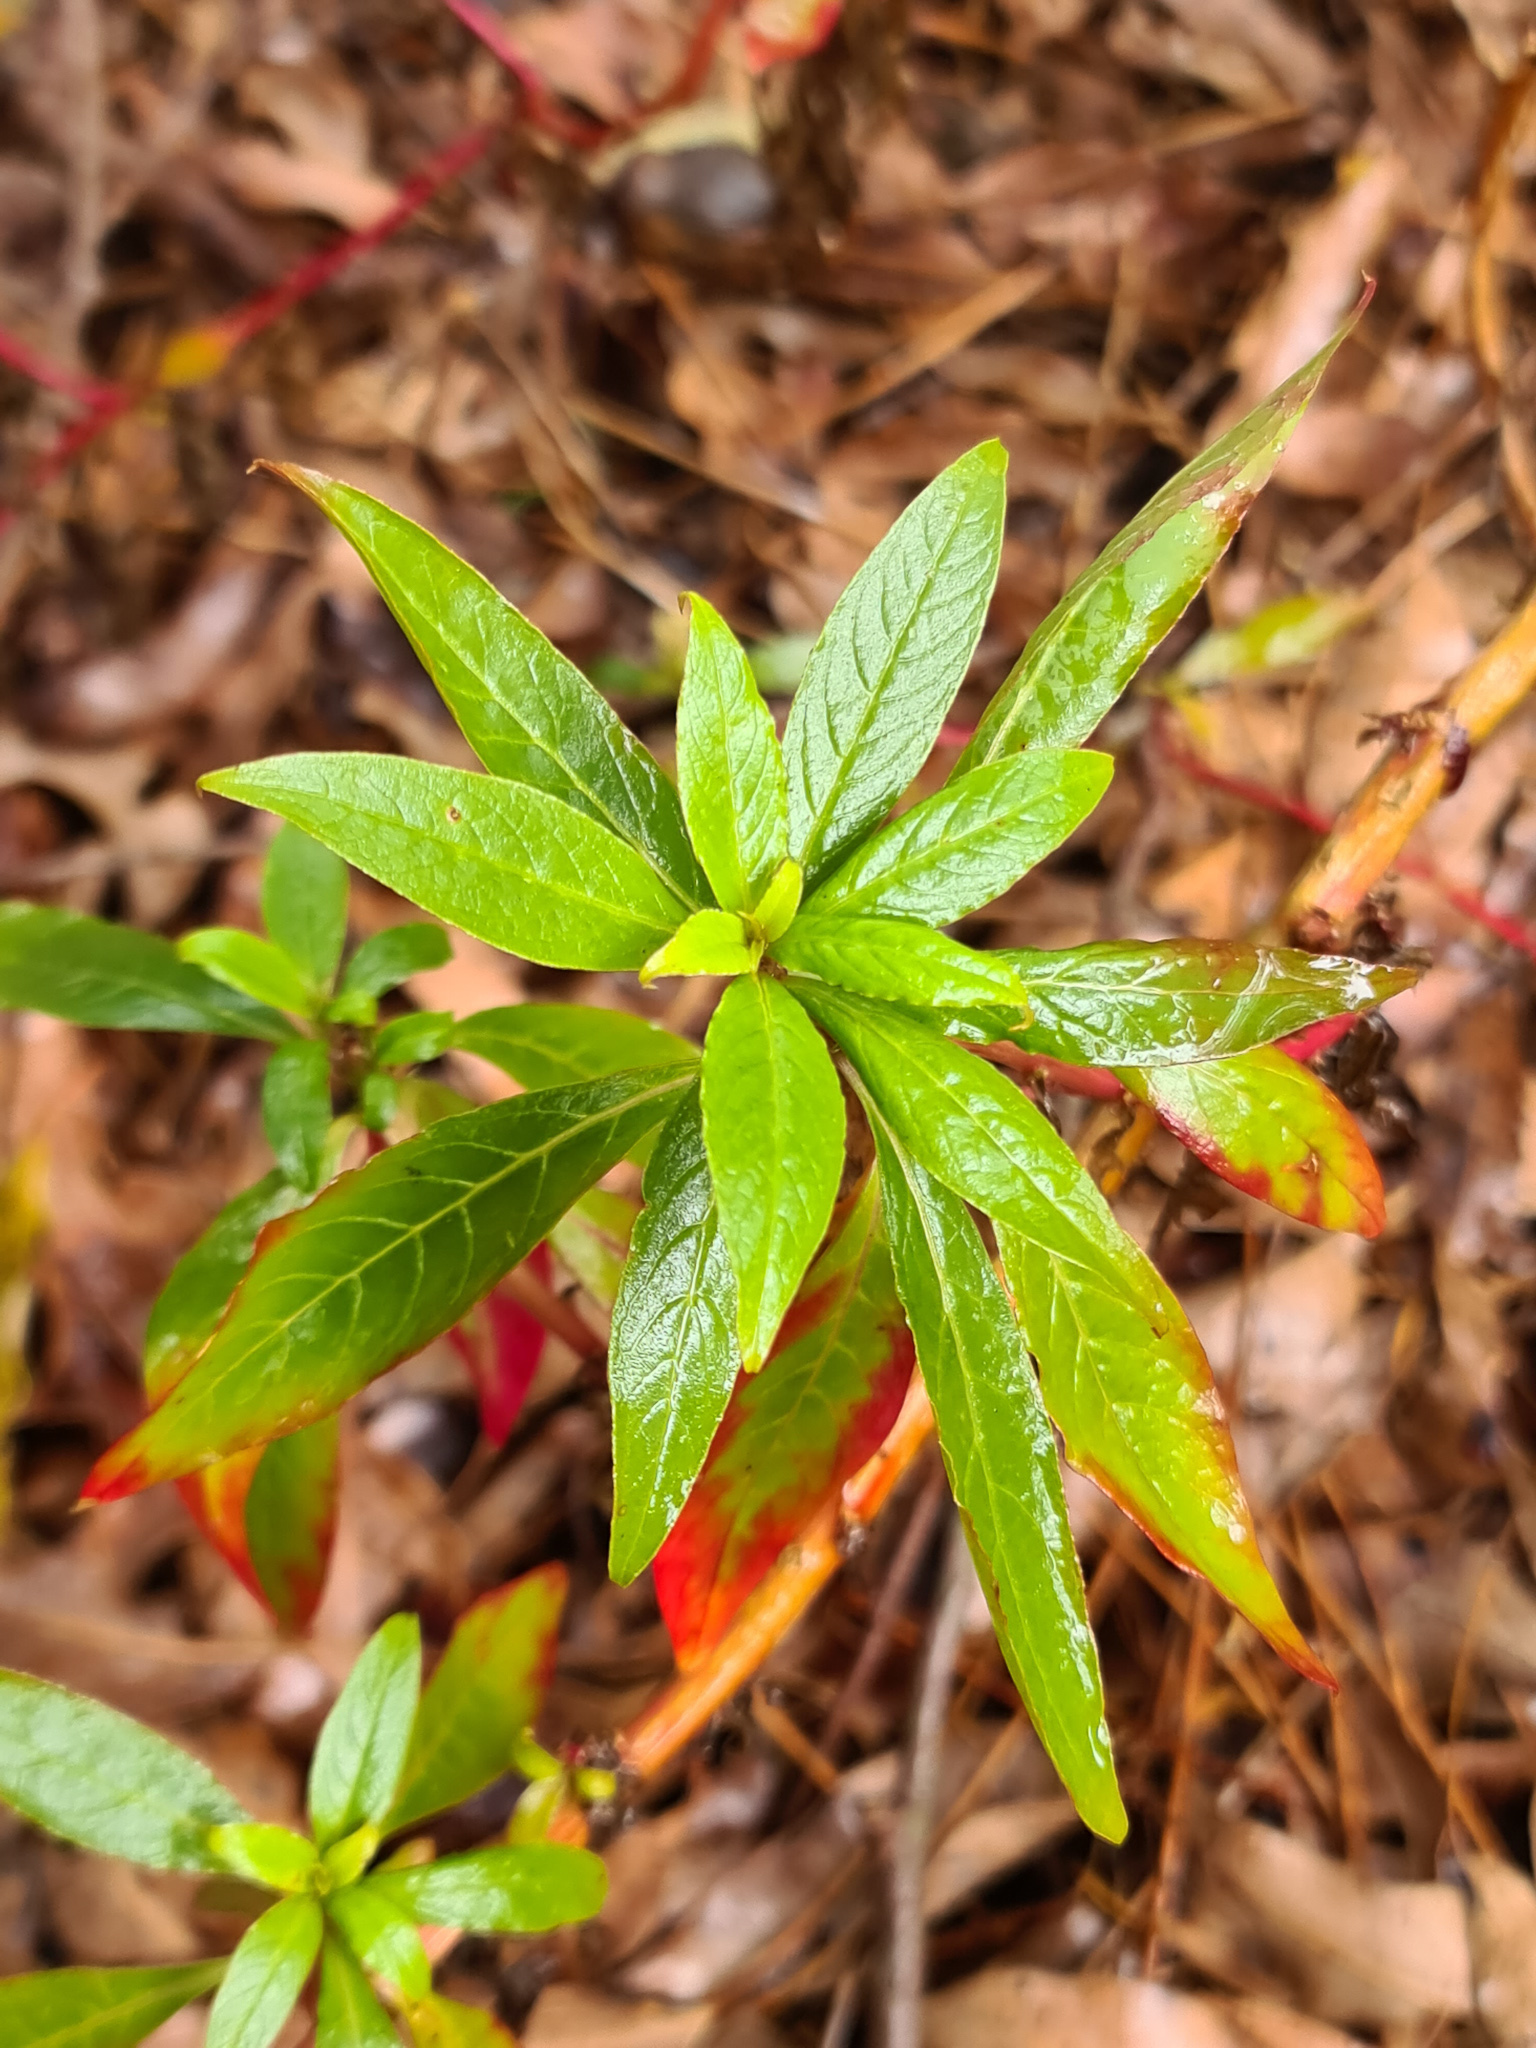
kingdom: Plantae
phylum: Tracheophyta
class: Magnoliopsida
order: Caryophyllales
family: Phytolaccaceae
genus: Phytolacca
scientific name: Phytolacca icosandra
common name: Button pokeweed
